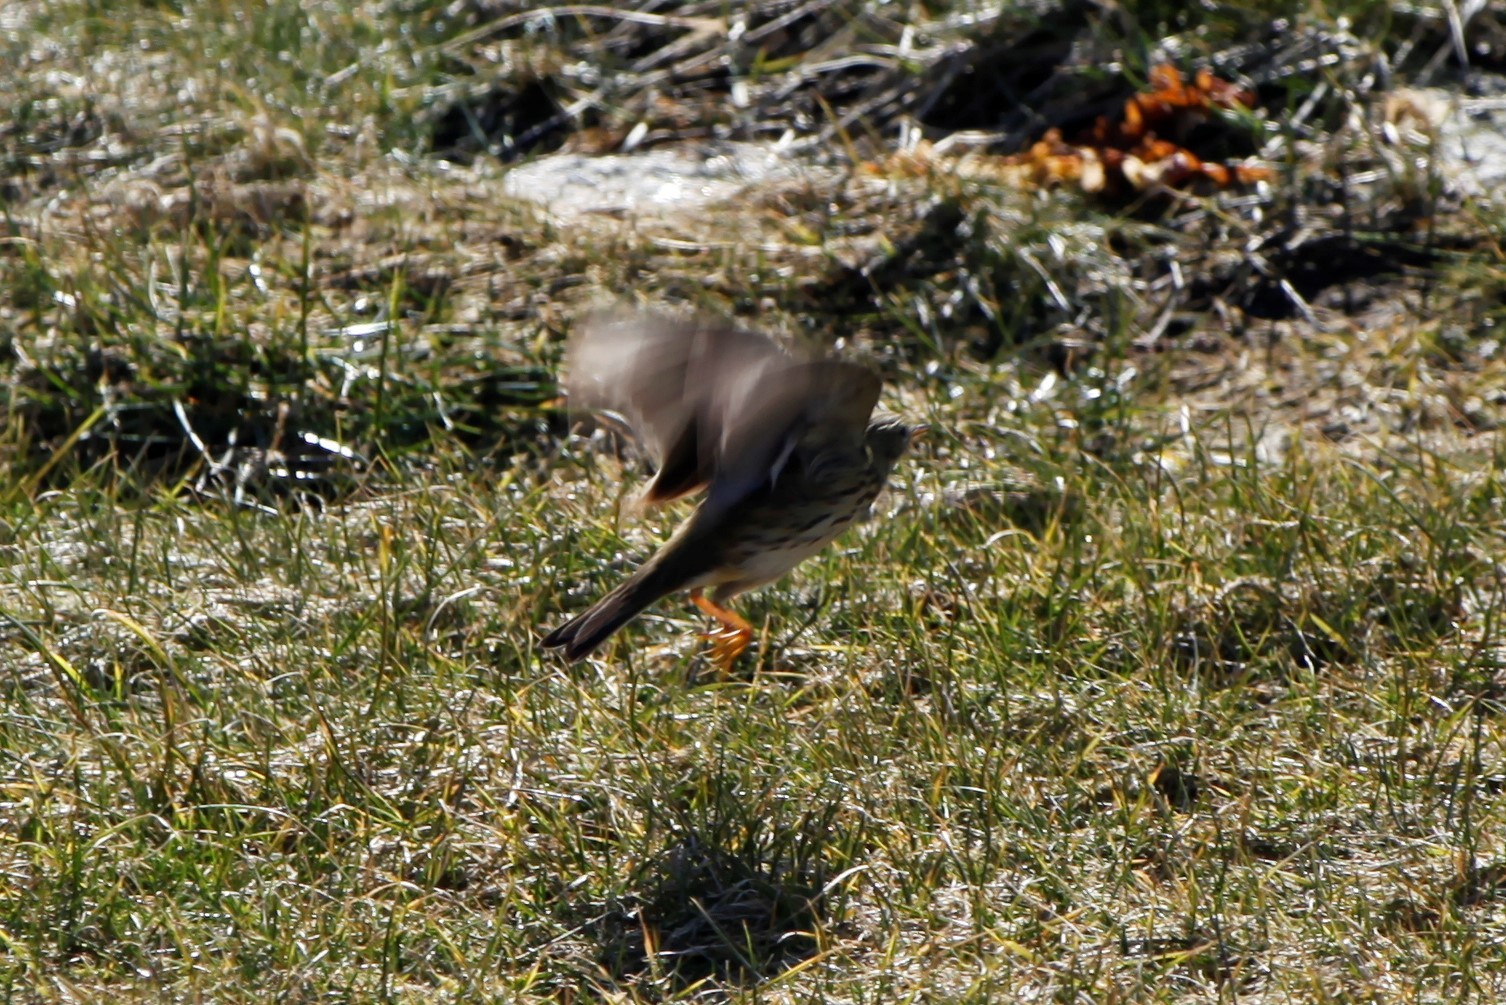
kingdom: Animalia
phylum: Chordata
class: Aves
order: Passeriformes
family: Motacillidae
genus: Anthus
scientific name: Anthus pratensis
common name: Meadow pipit
